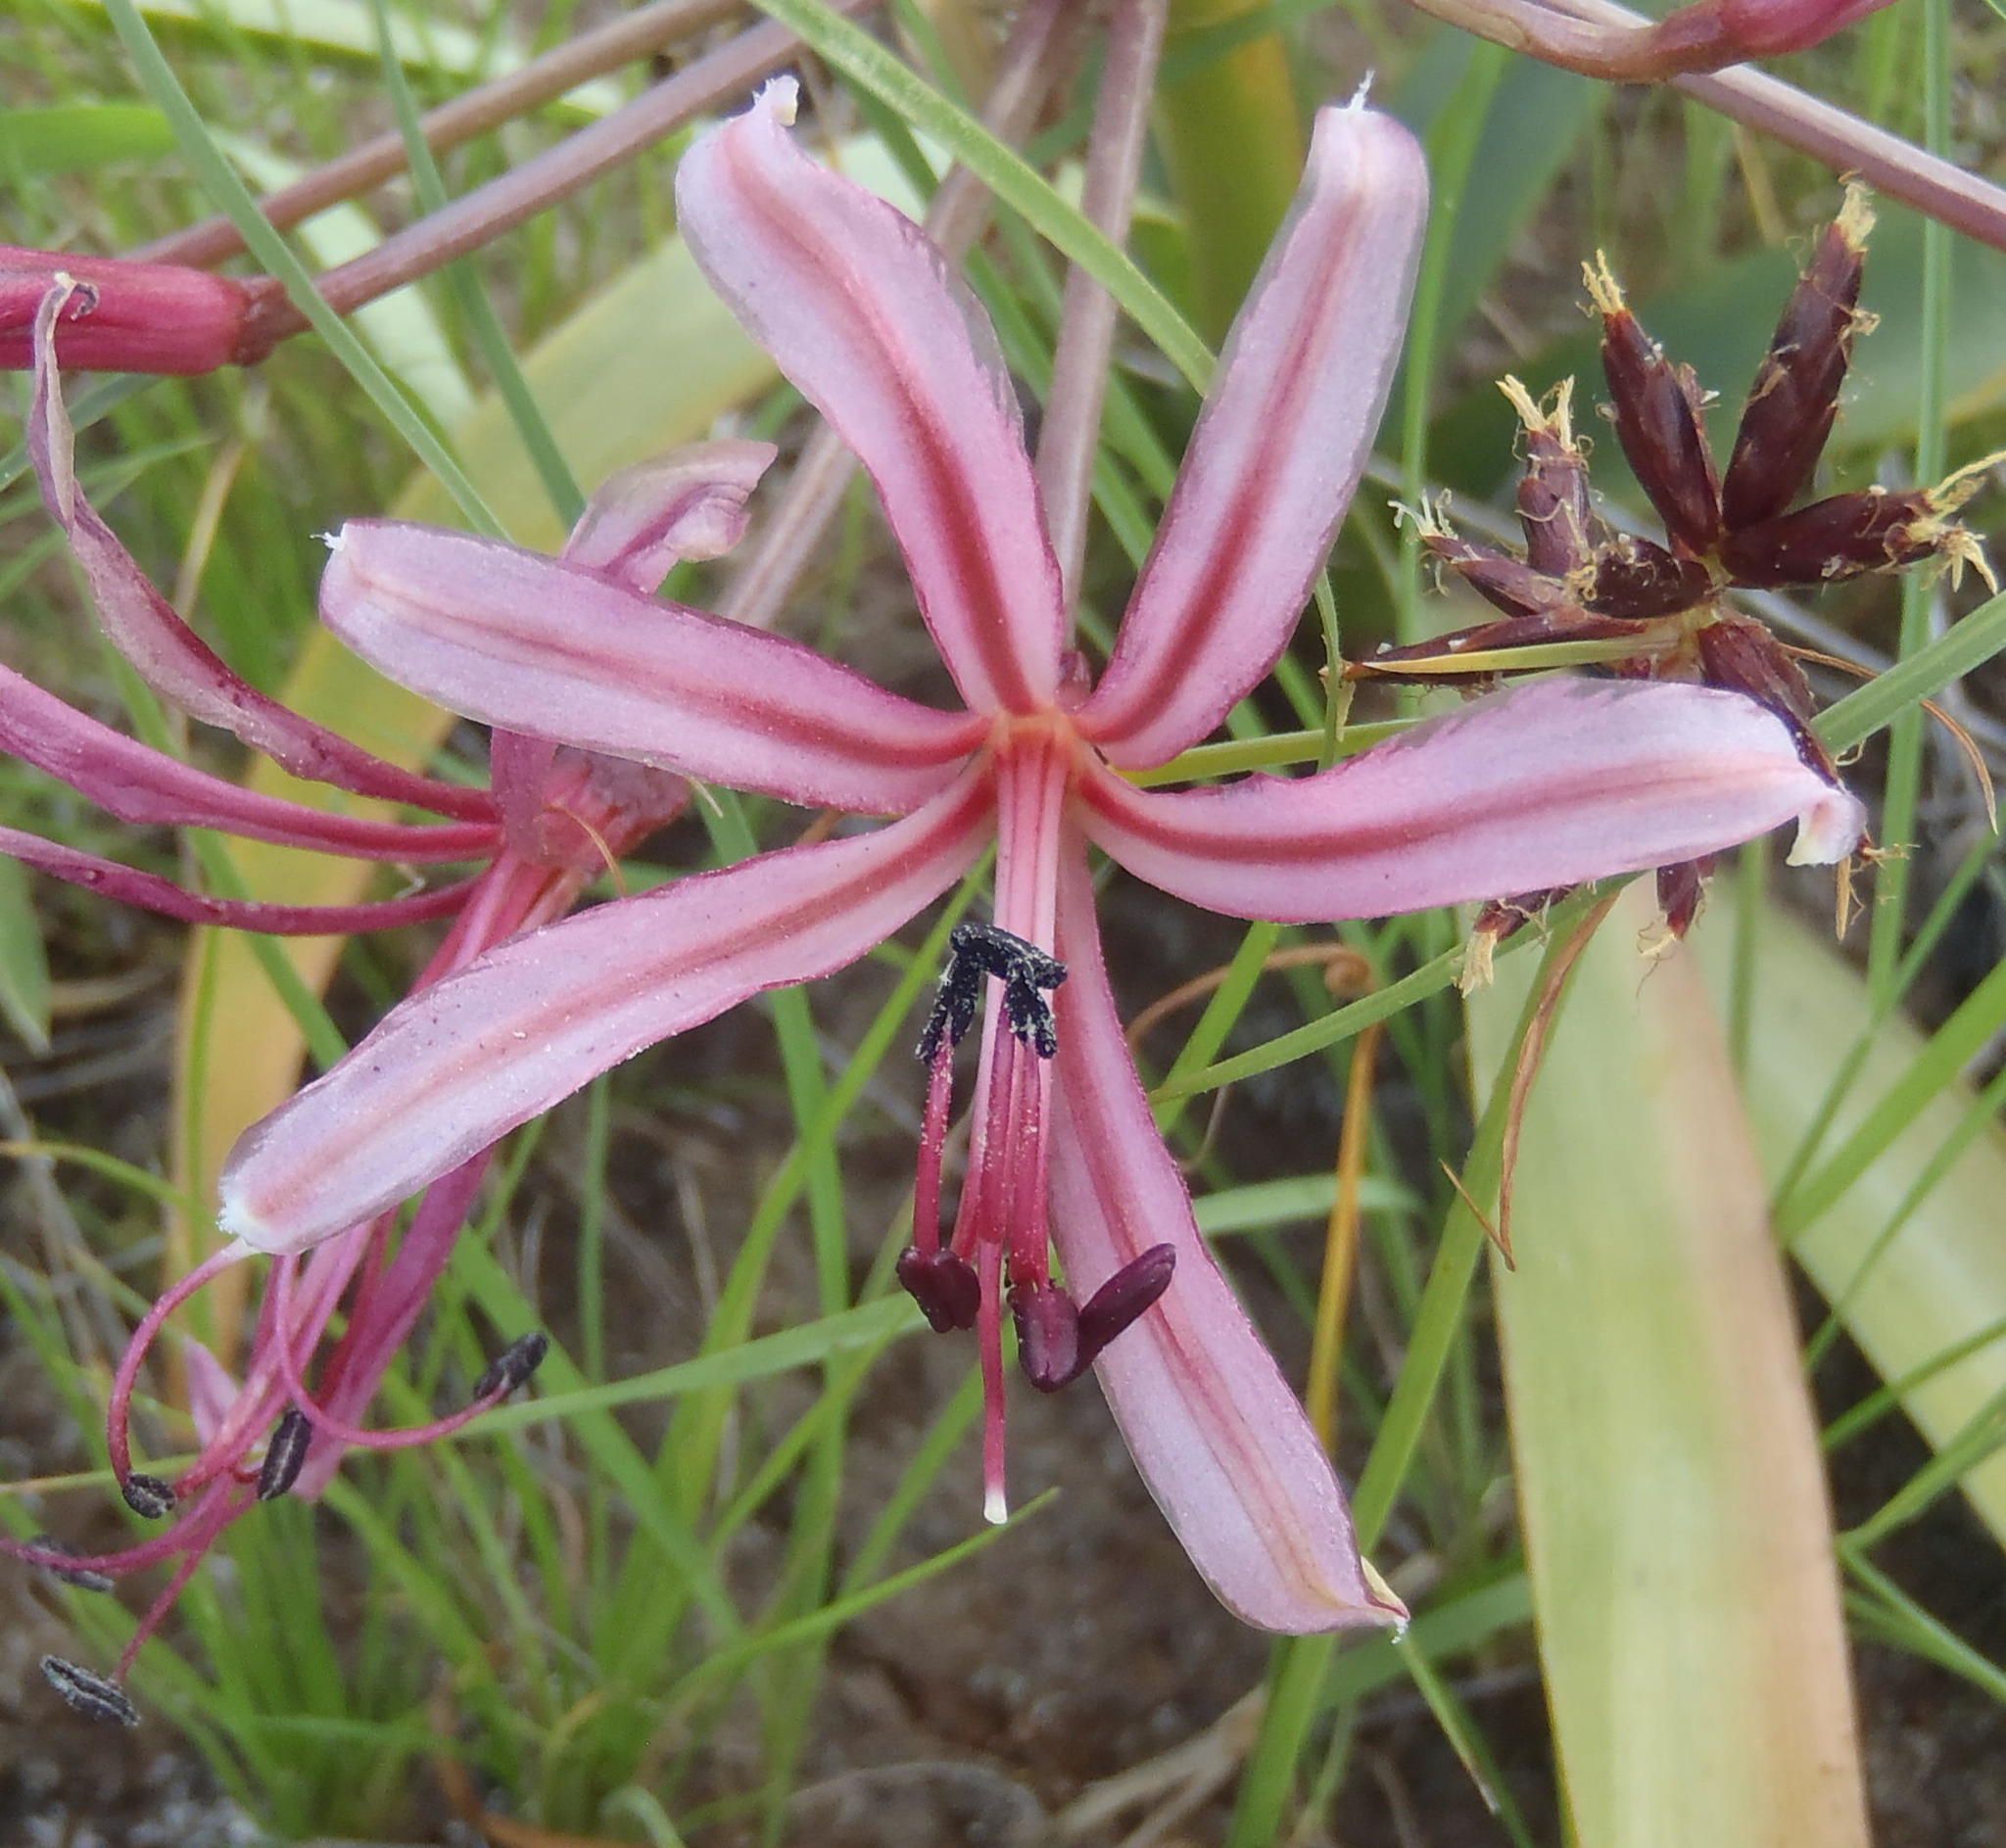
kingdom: Plantae
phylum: Tracheophyta
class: Liliopsida
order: Asparagales
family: Amaryllidaceae
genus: Nerine
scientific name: Nerine laticoma
